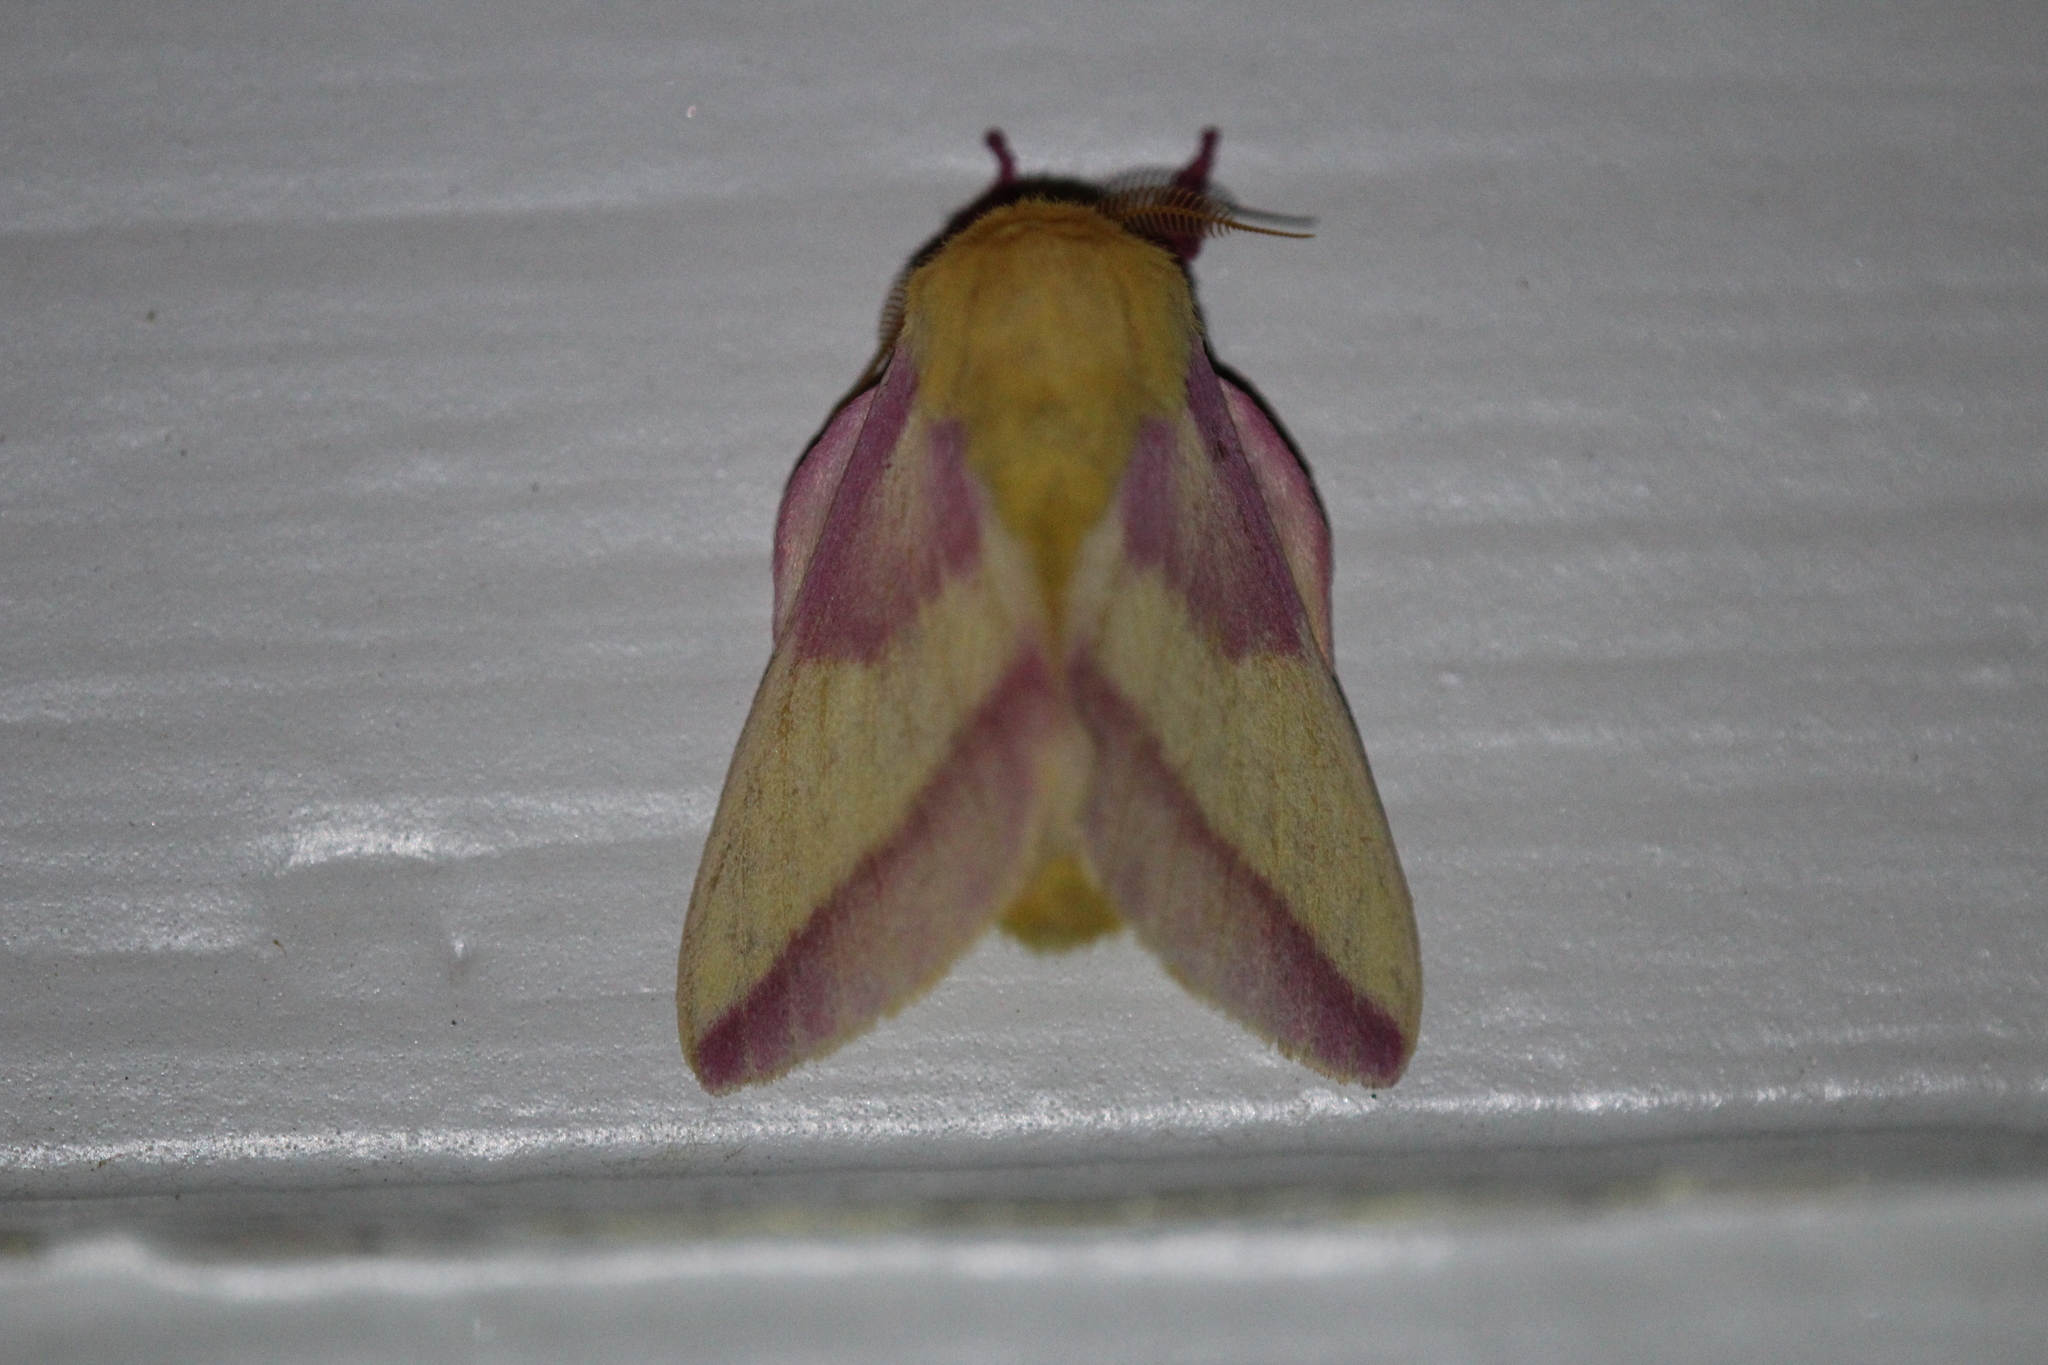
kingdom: Animalia
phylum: Arthropoda
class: Insecta
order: Lepidoptera
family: Saturniidae
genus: Dryocampa
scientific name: Dryocampa rubicunda
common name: Rosy maple moth
